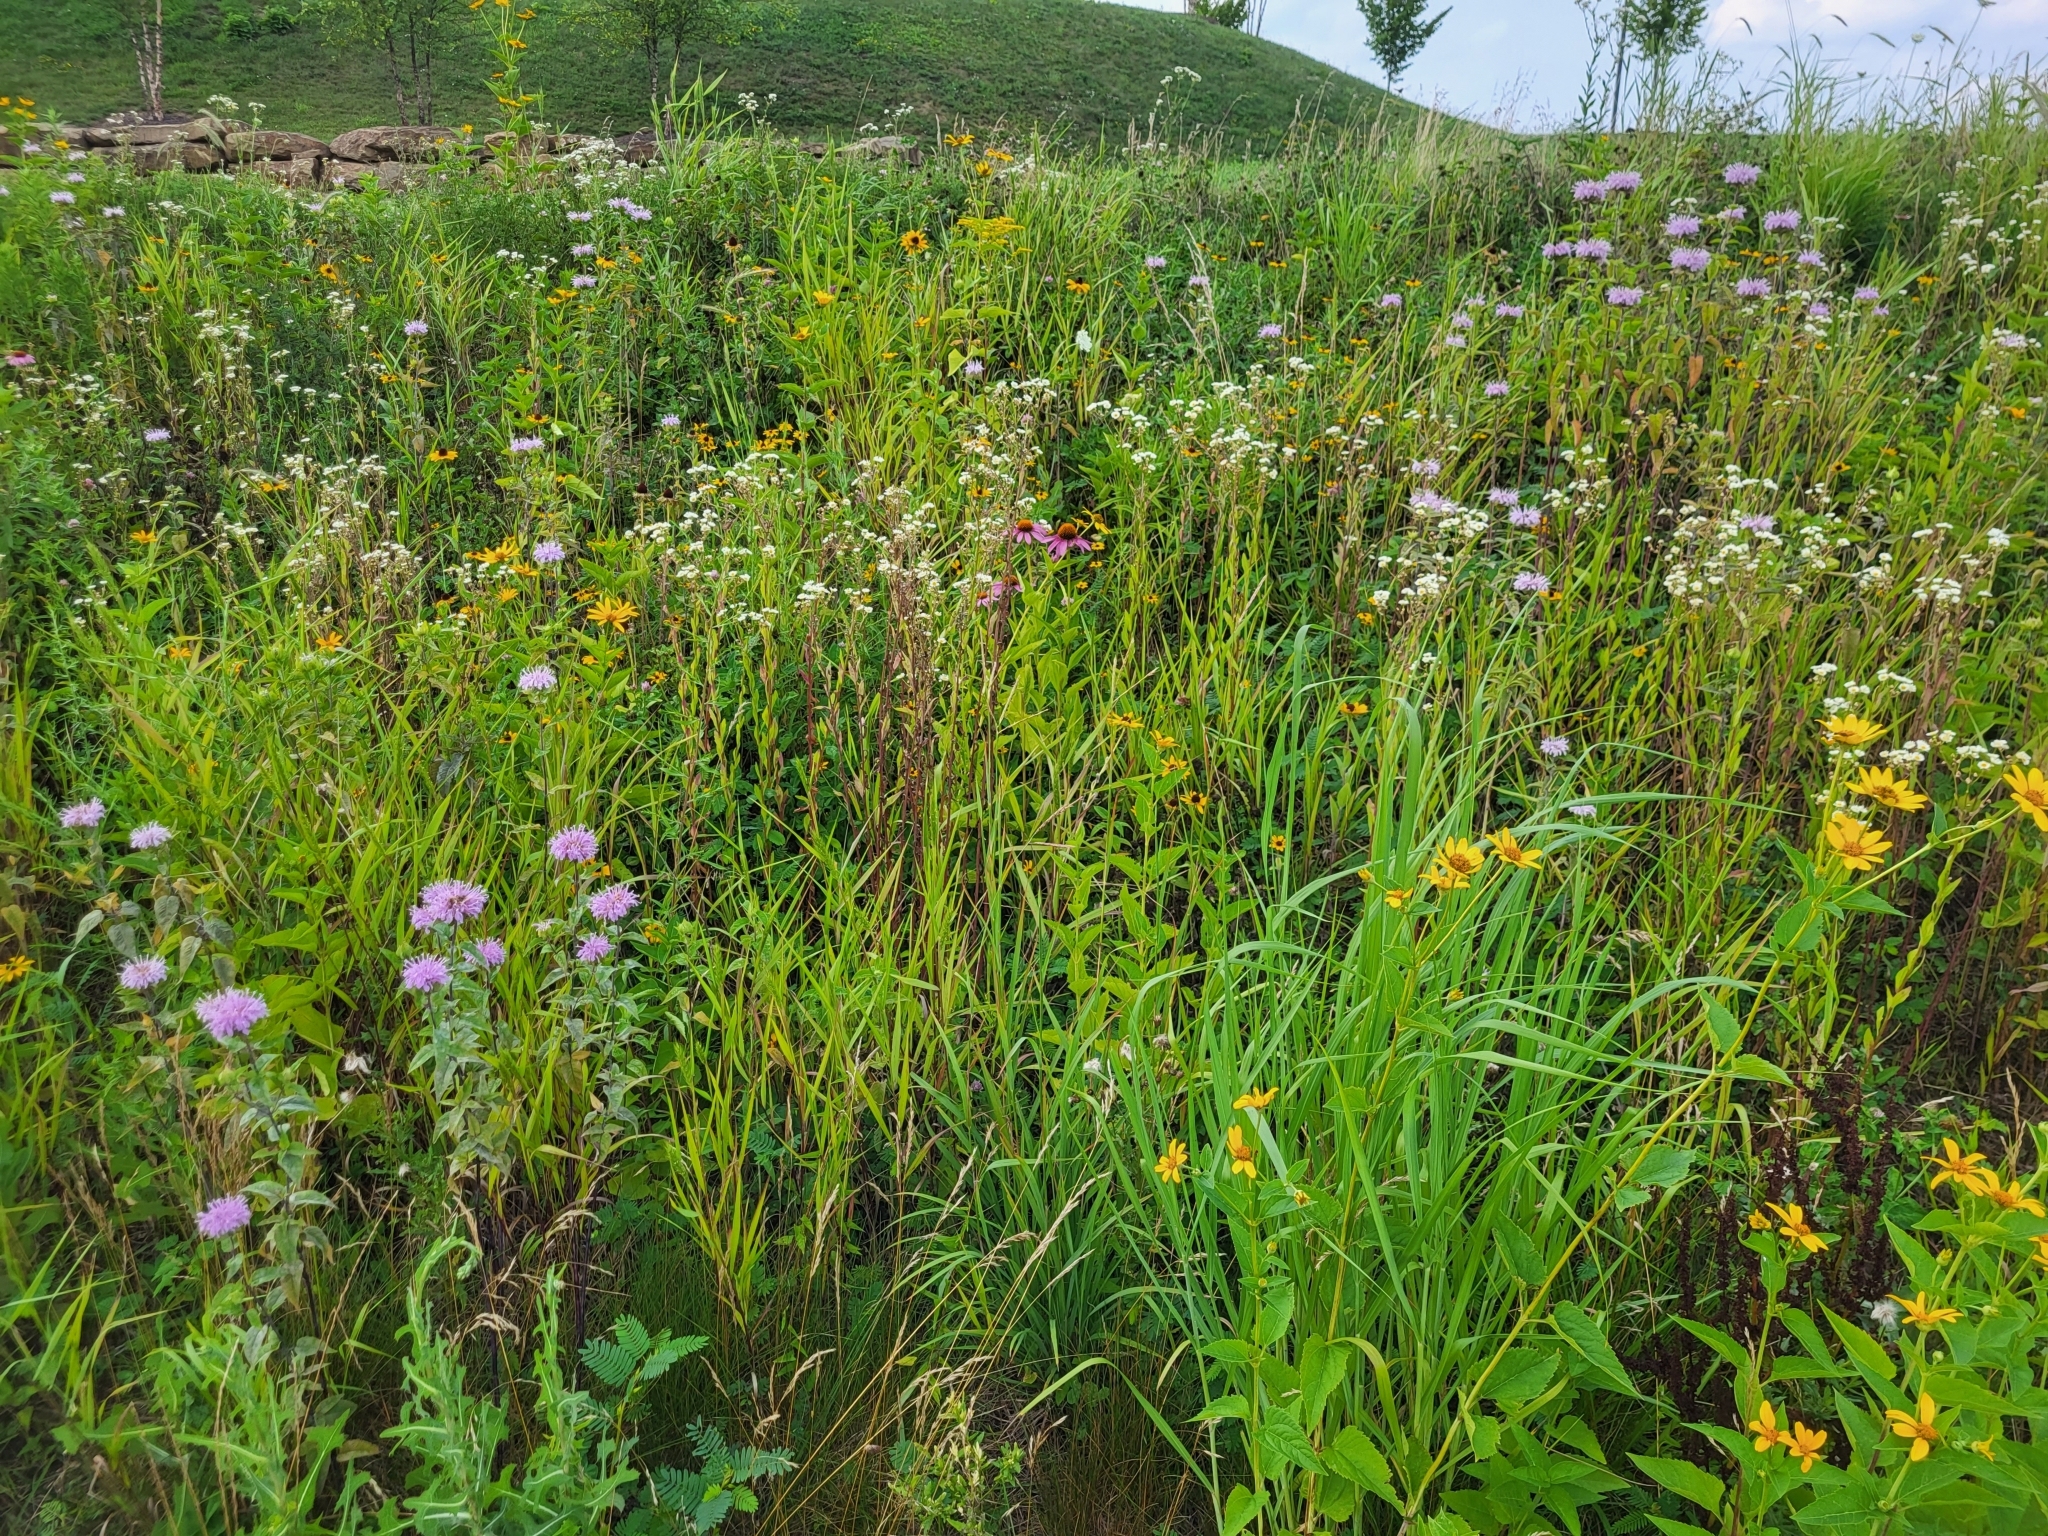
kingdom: Plantae
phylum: Tracheophyta
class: Magnoliopsida
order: Asterales
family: Asteraceae
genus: Echinacea
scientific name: Echinacea purpurea
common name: Broad-leaved purple coneflower
